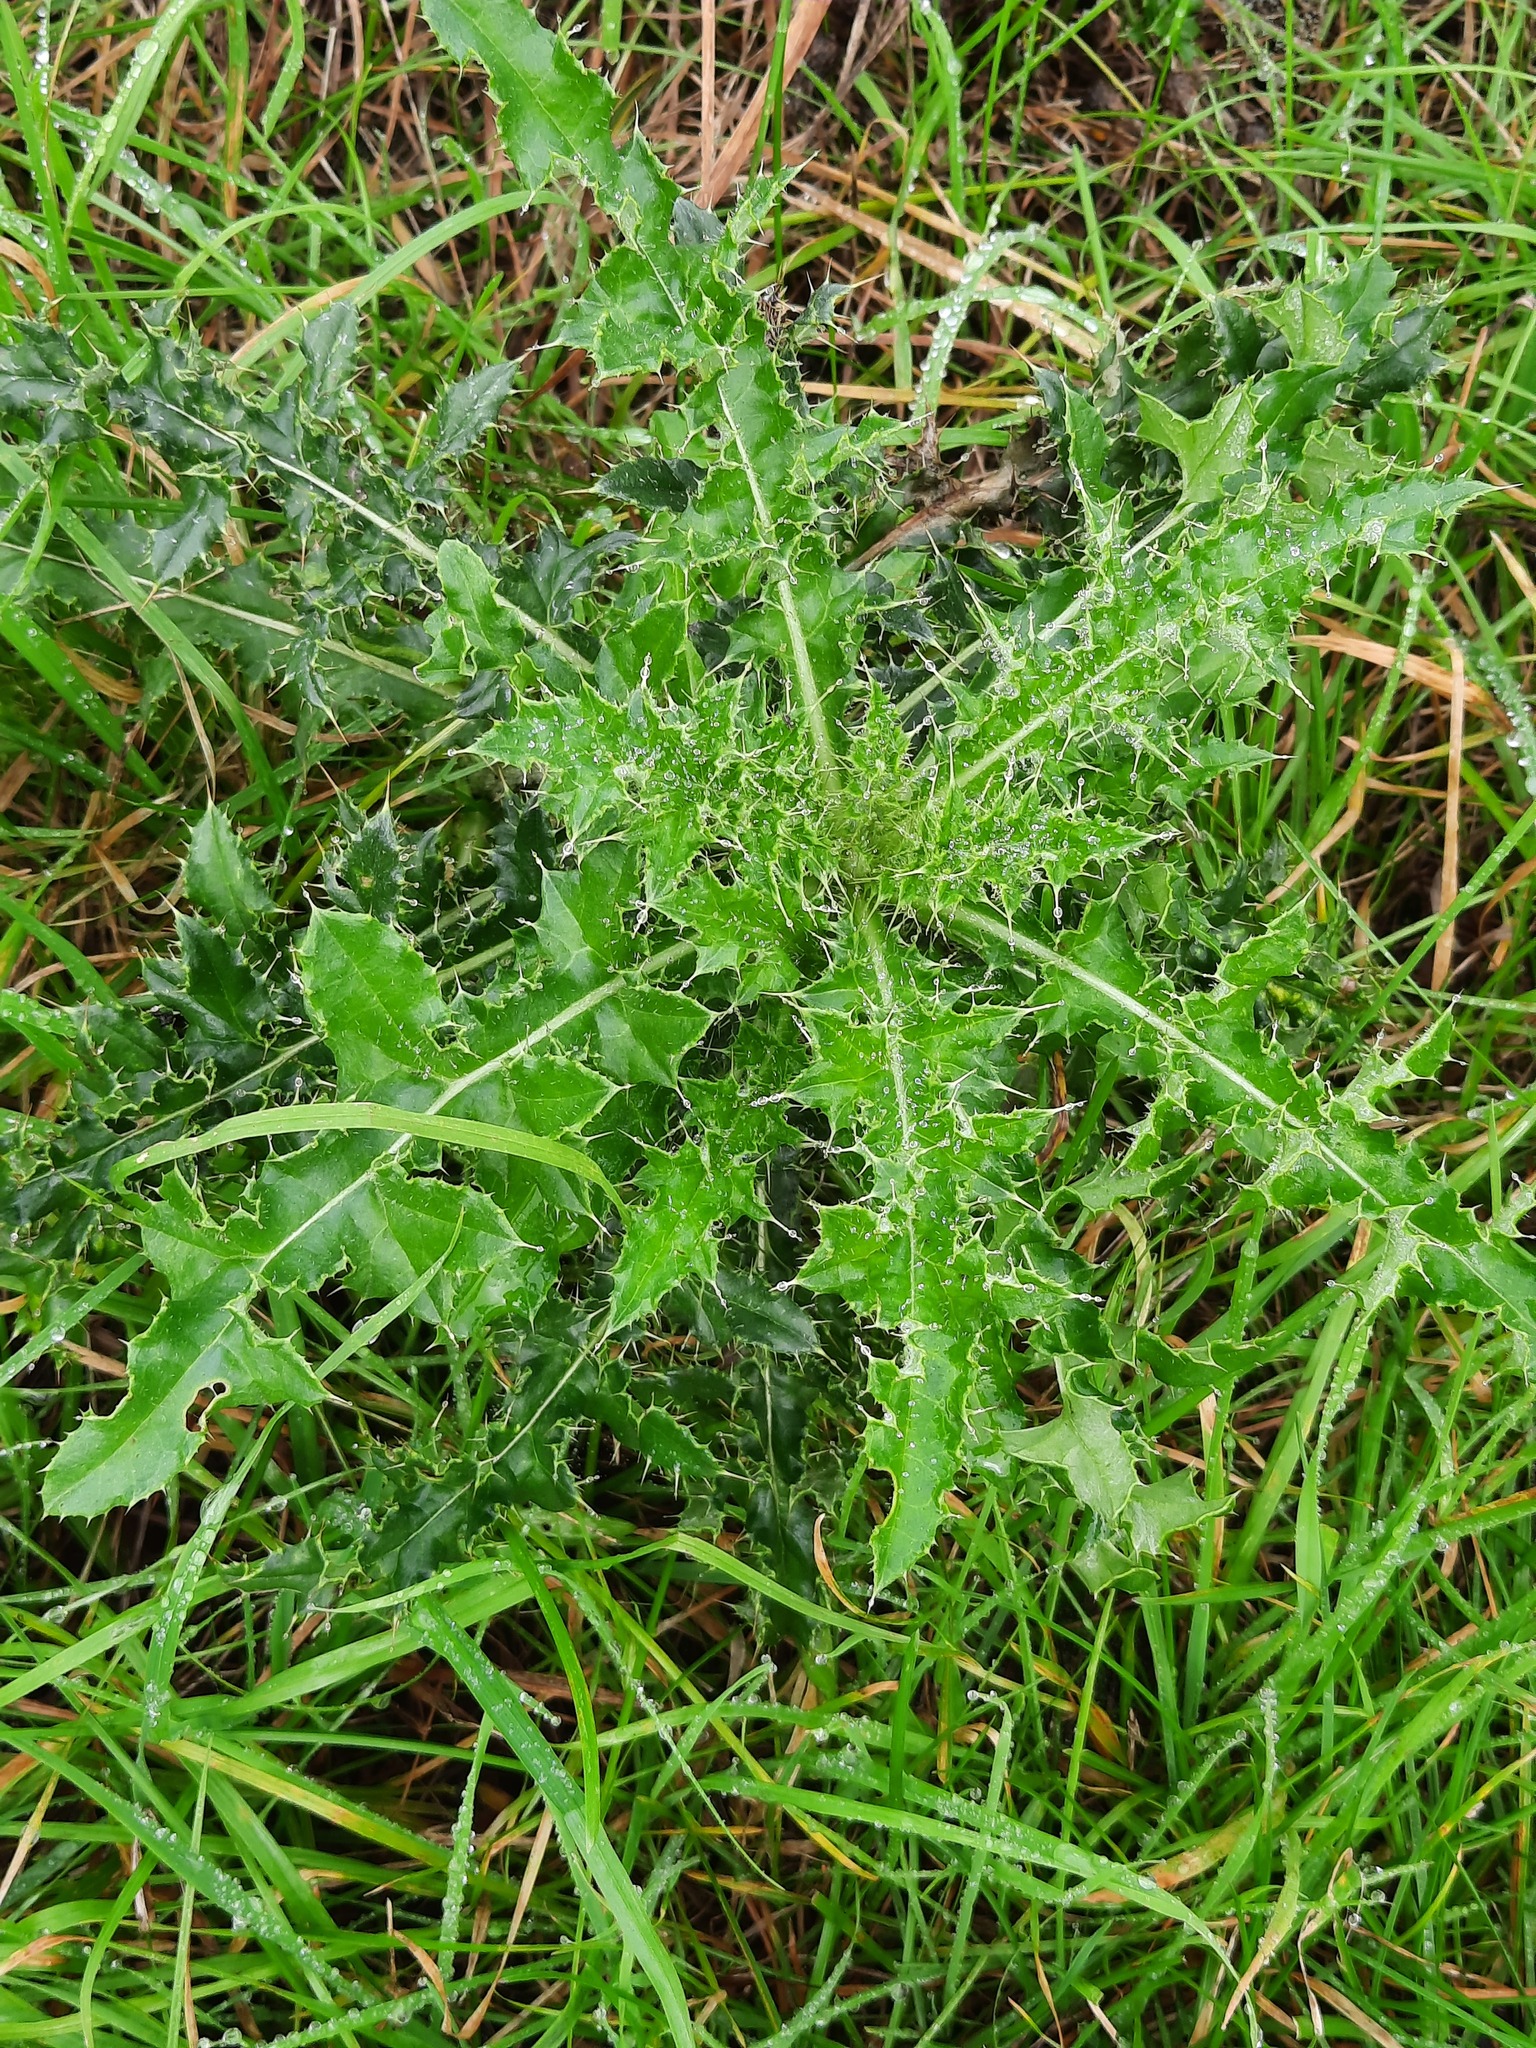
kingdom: Plantae
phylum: Tracheophyta
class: Magnoliopsida
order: Asterales
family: Asteraceae
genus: Cirsium
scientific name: Cirsium arvense
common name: Creeping thistle
